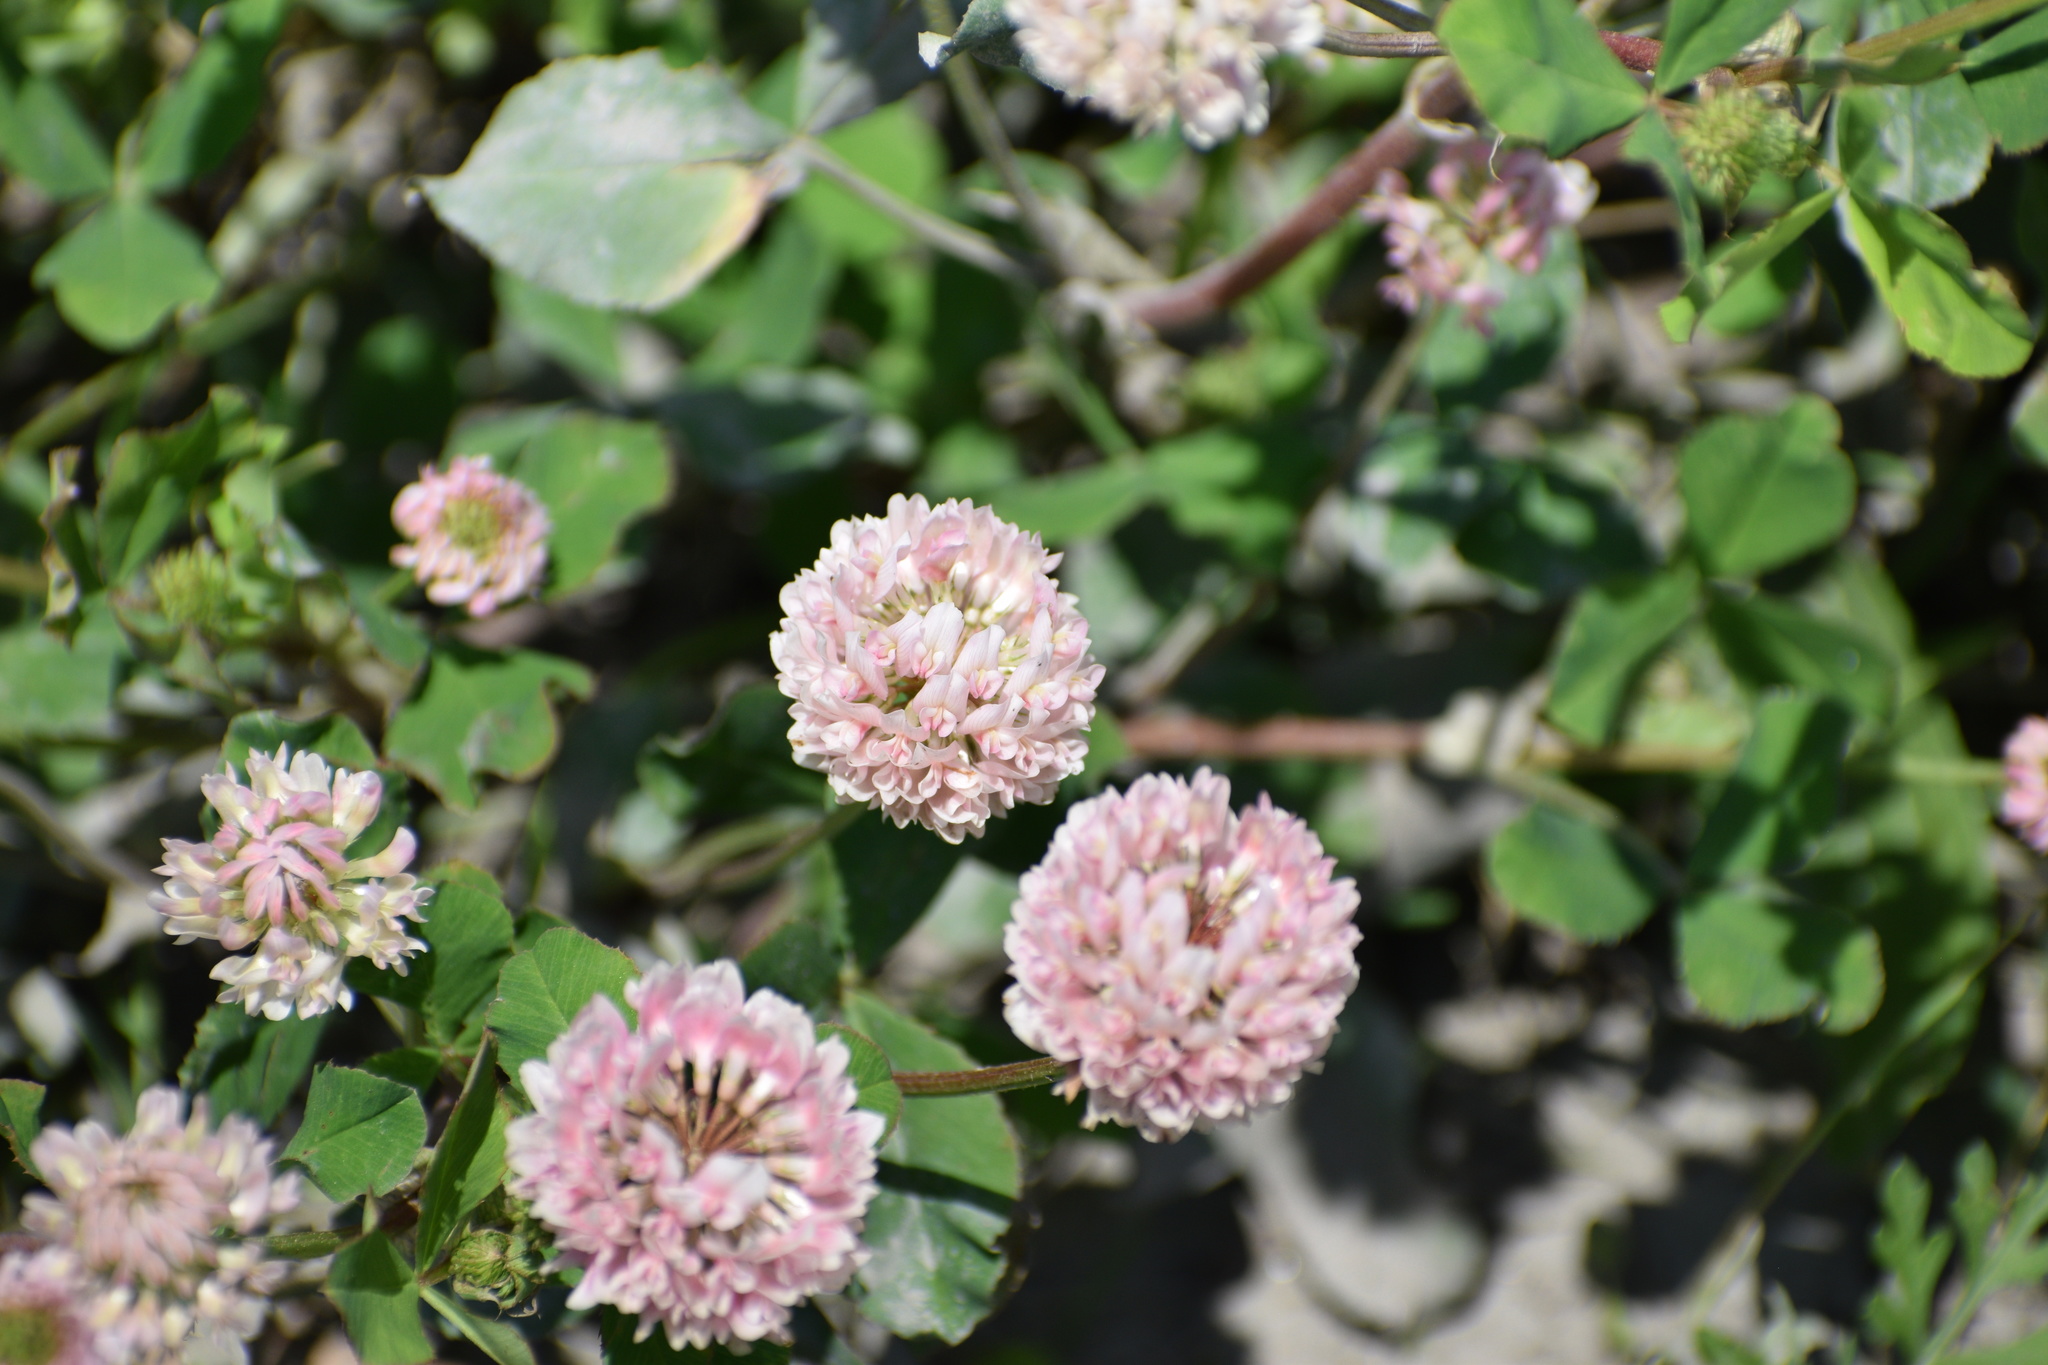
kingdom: Plantae
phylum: Tracheophyta
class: Magnoliopsida
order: Fabales
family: Fabaceae
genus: Trifolium
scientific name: Trifolium hybridum
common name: Alsike clover
